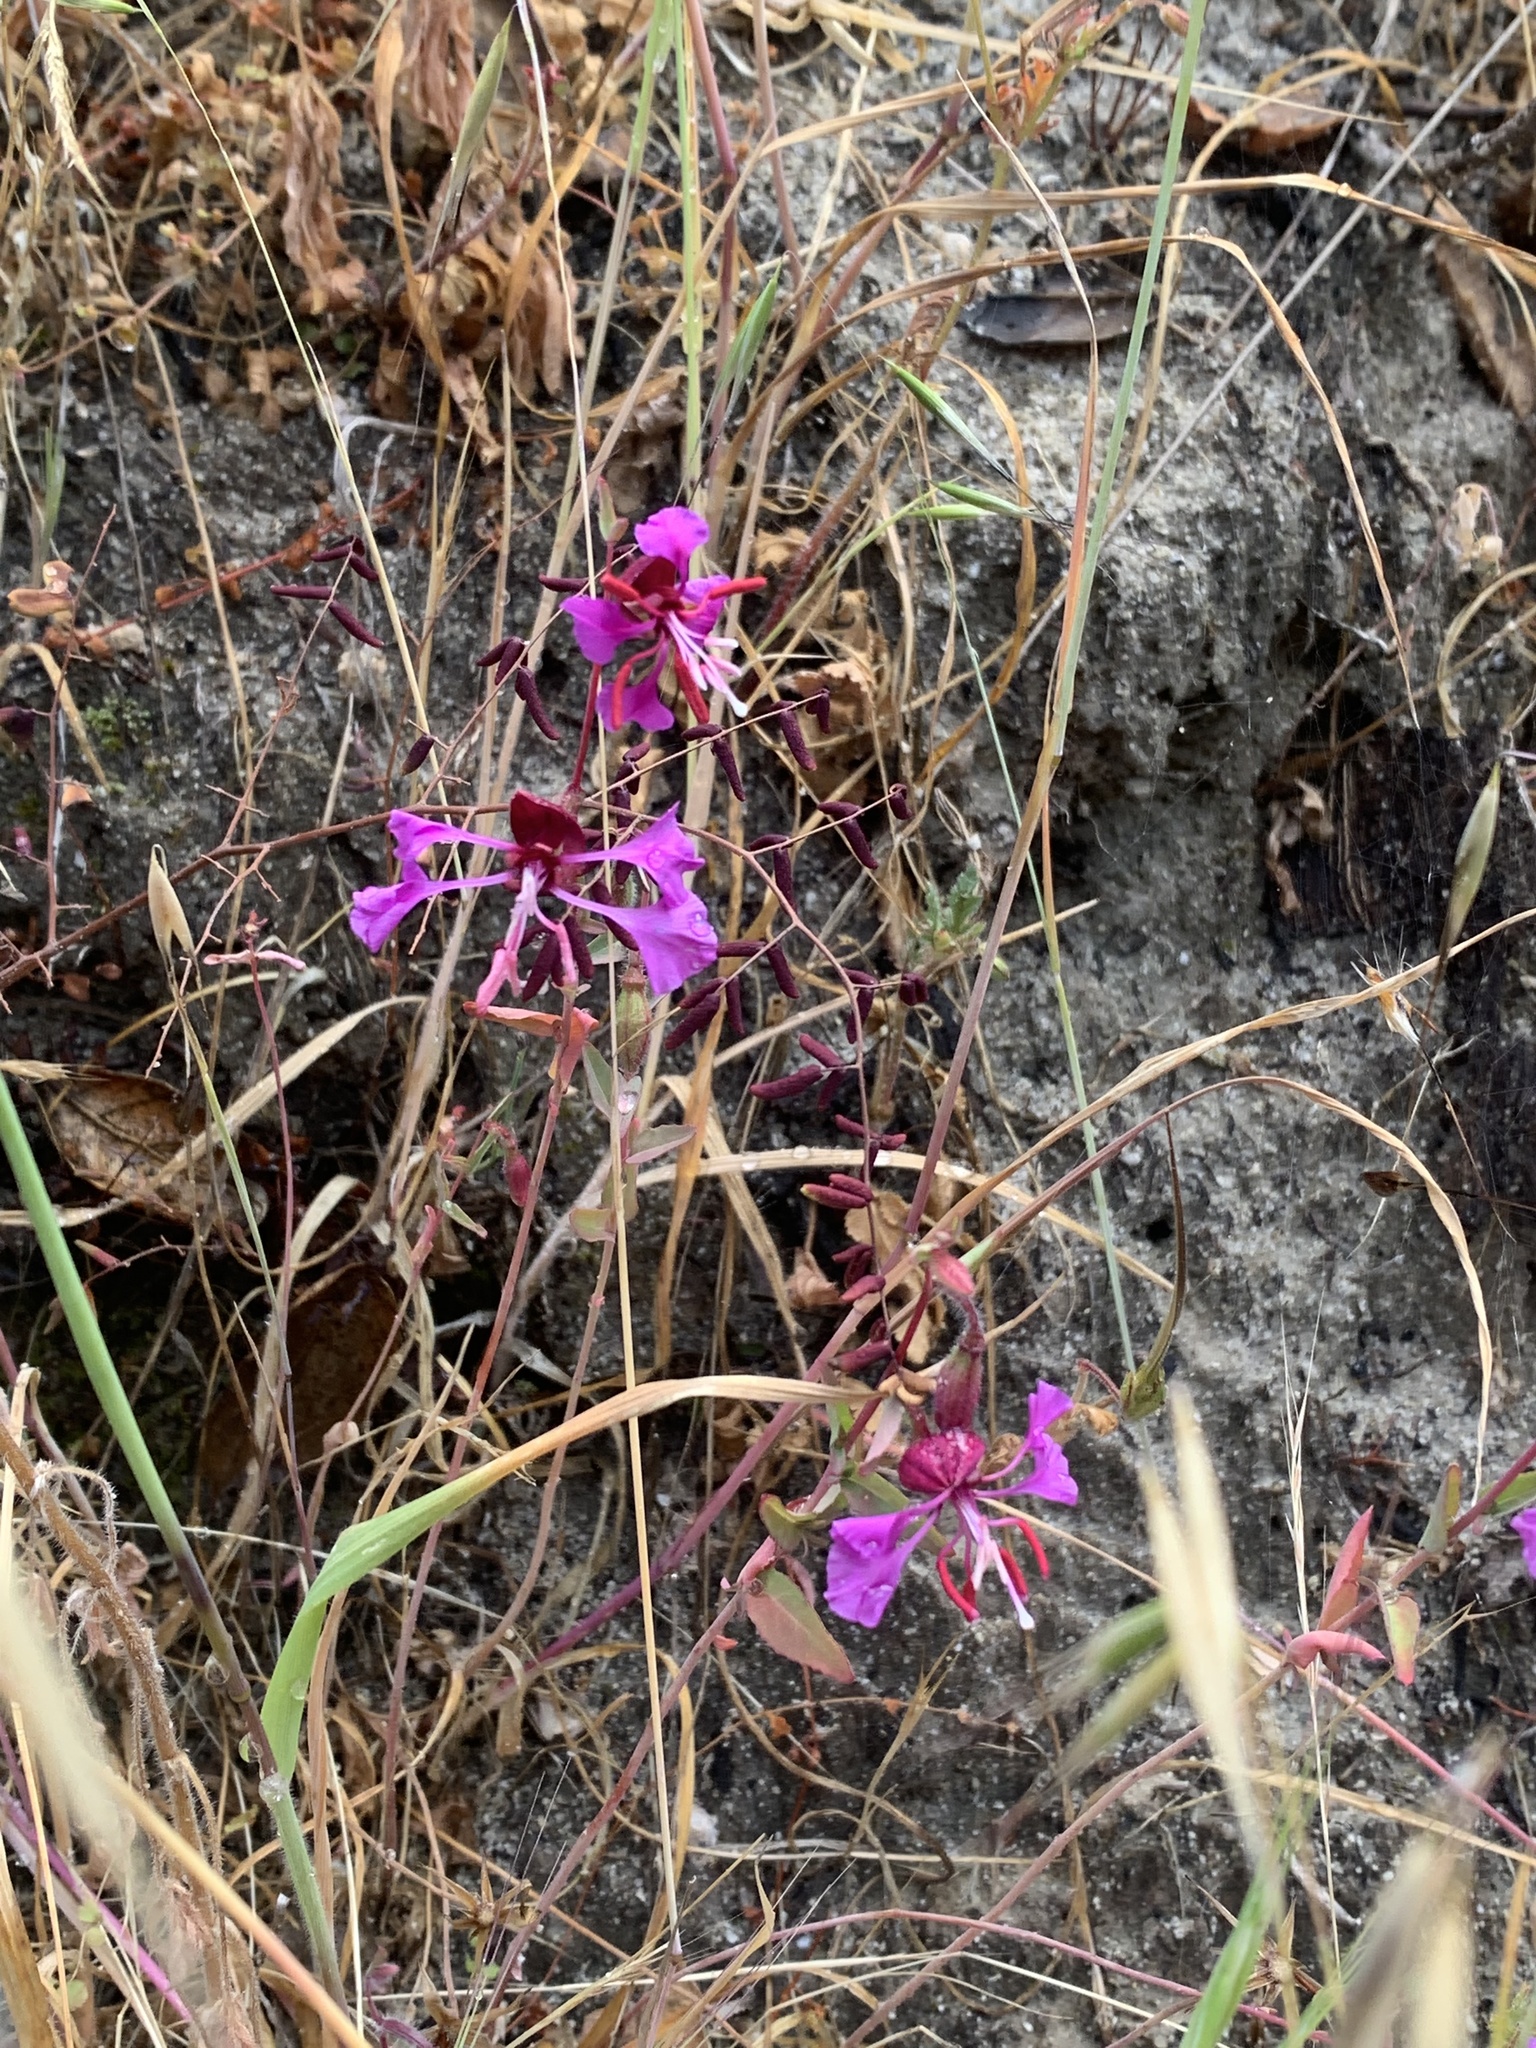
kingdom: Plantae
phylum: Tracheophyta
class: Magnoliopsida
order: Myrtales
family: Onagraceae
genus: Clarkia
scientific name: Clarkia unguiculata
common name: Clarkia
